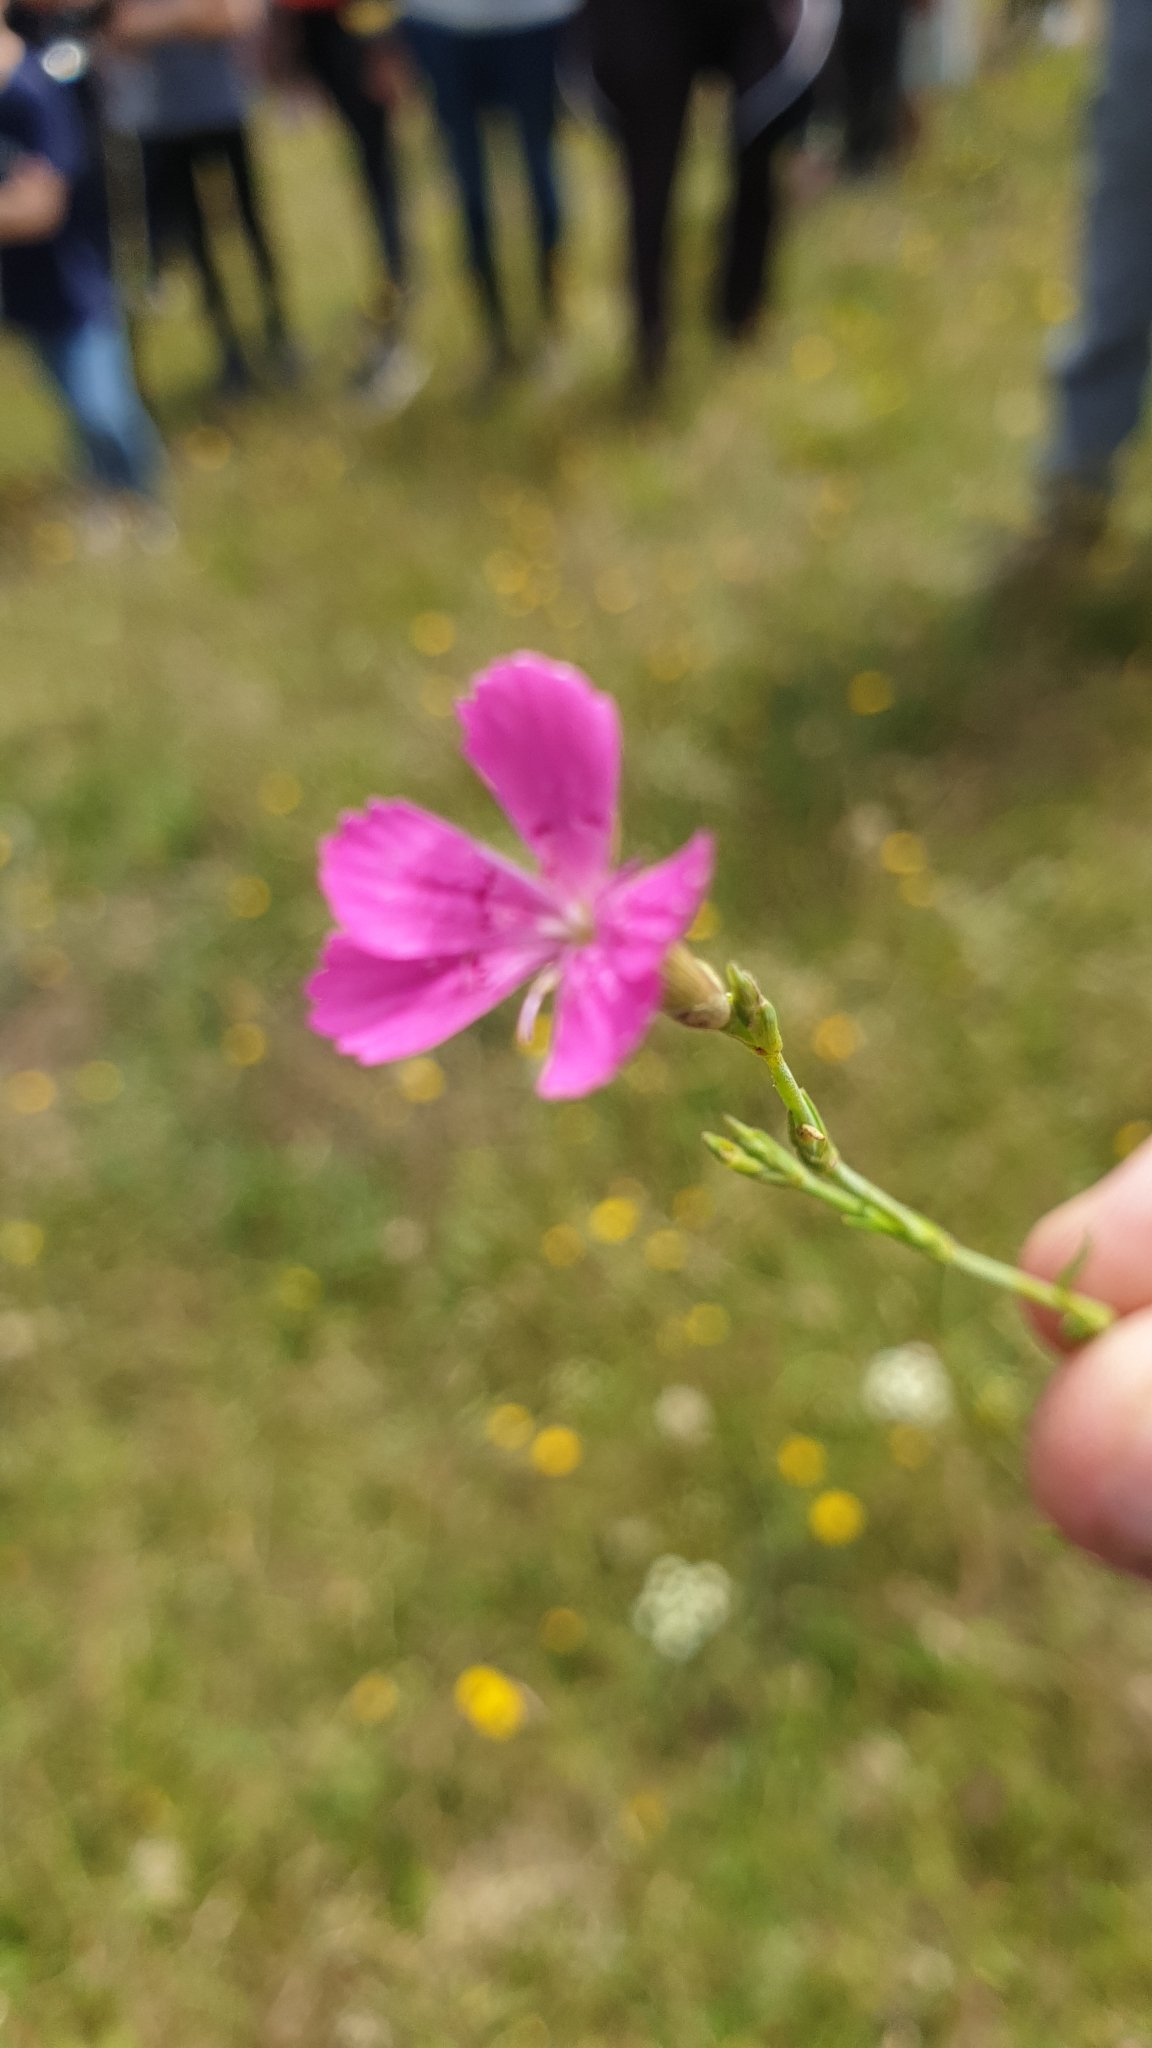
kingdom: Plantae
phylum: Tracheophyta
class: Magnoliopsida
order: Caryophyllales
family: Caryophyllaceae
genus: Dianthus
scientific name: Dianthus deltoides
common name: Maiden pink
